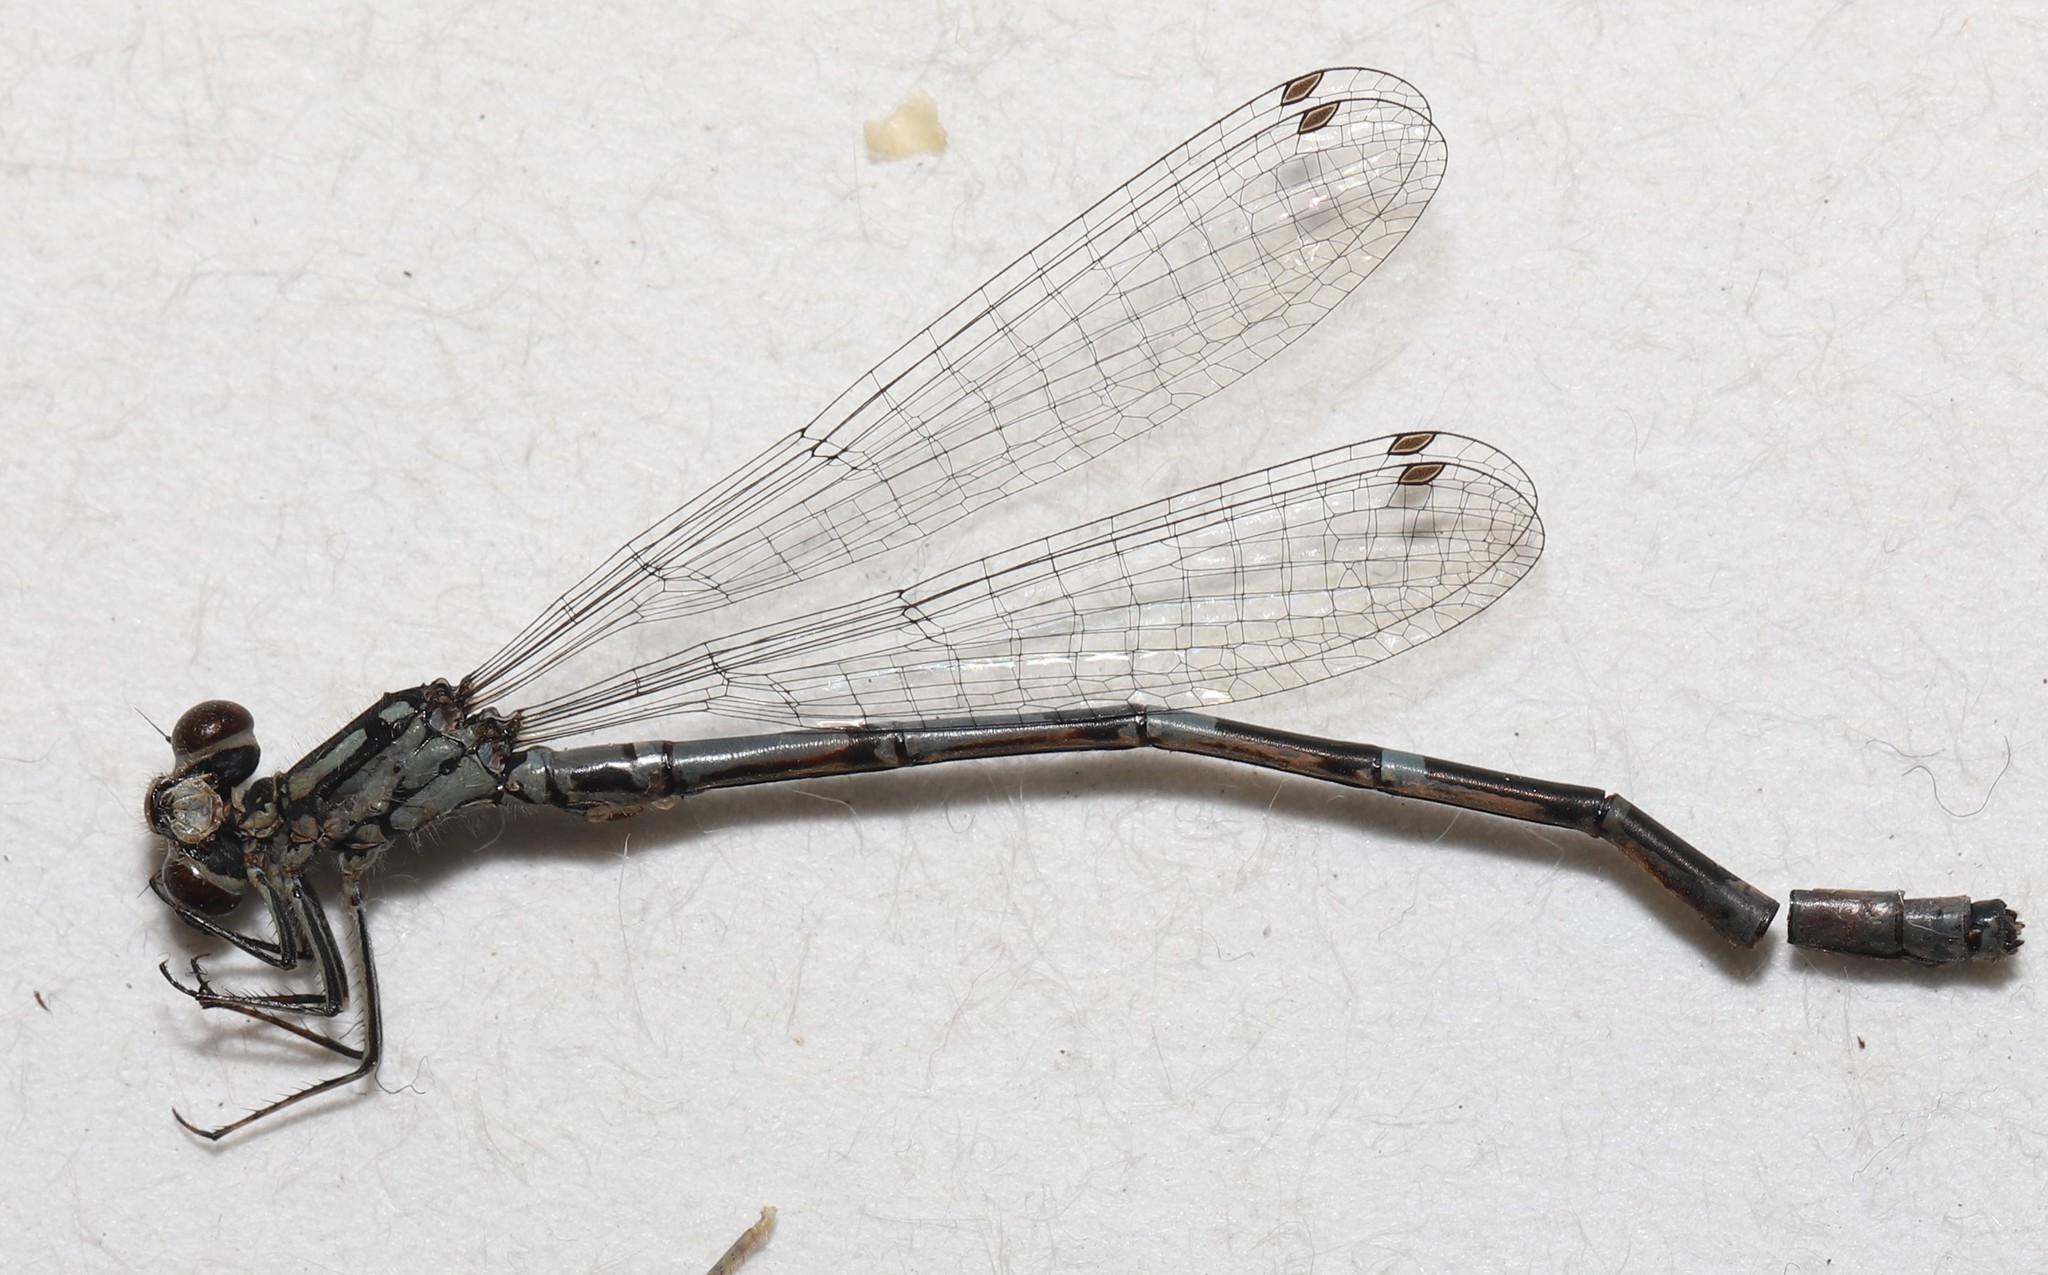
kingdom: Animalia
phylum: Arthropoda
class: Insecta
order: Odonata
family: Coenagrionidae
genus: Coenagrion
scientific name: Coenagrion interrogatum
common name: Subarctic bluet
